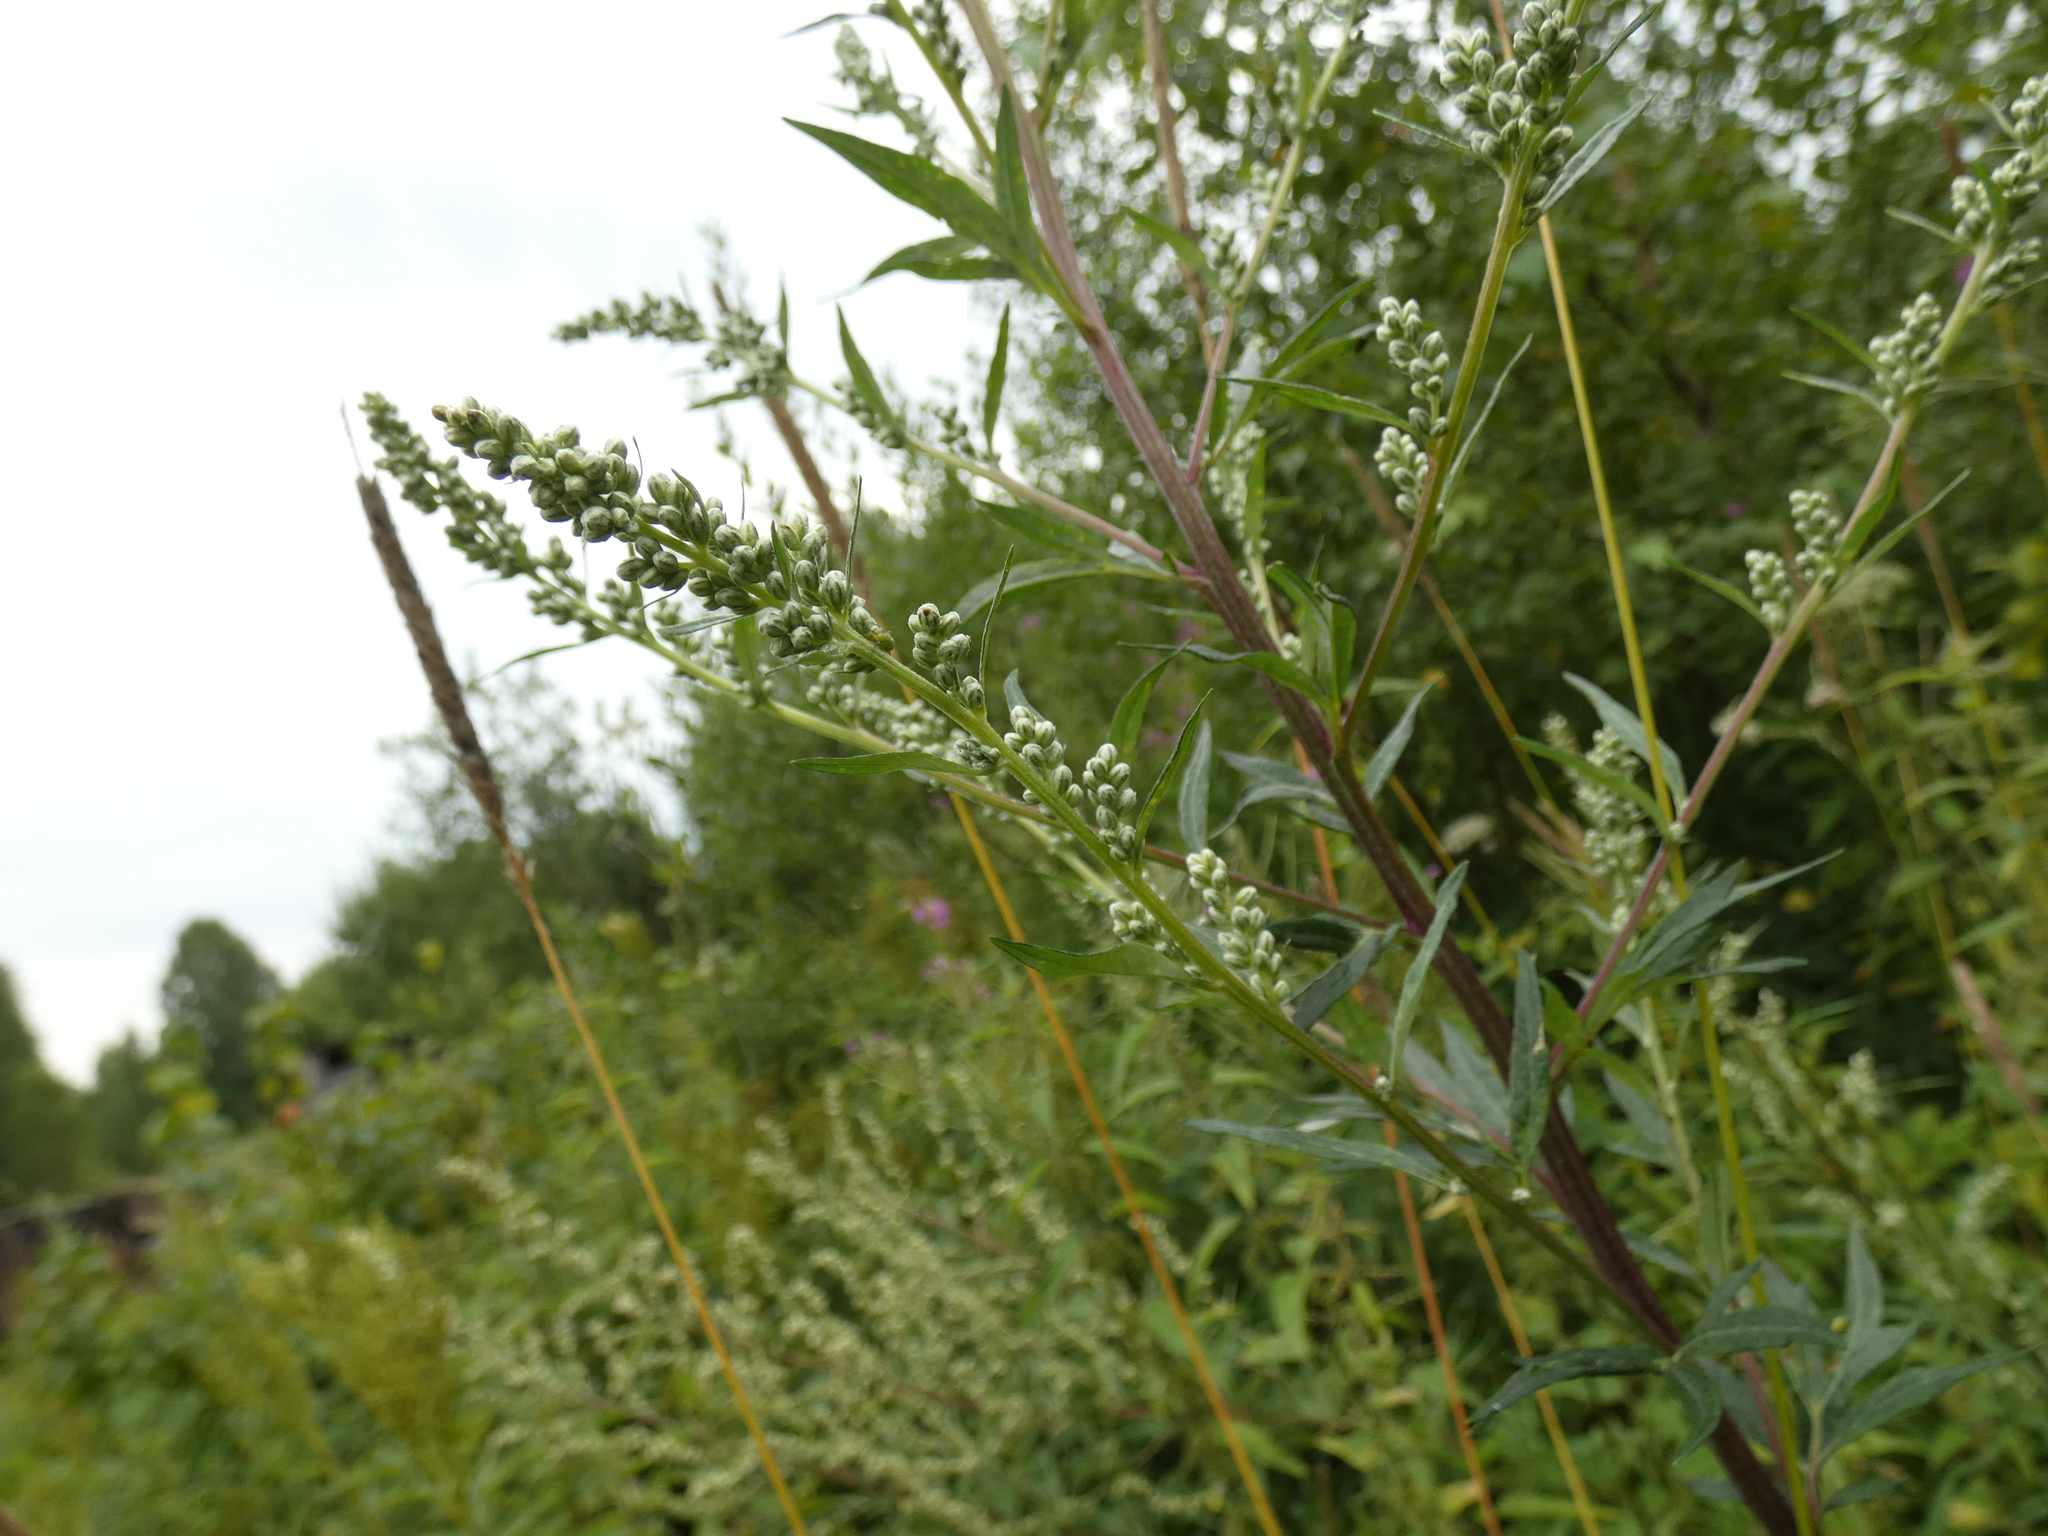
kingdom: Plantae
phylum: Tracheophyta
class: Magnoliopsida
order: Asterales
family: Asteraceae
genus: Artemisia
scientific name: Artemisia vulgaris
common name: Mugwort
